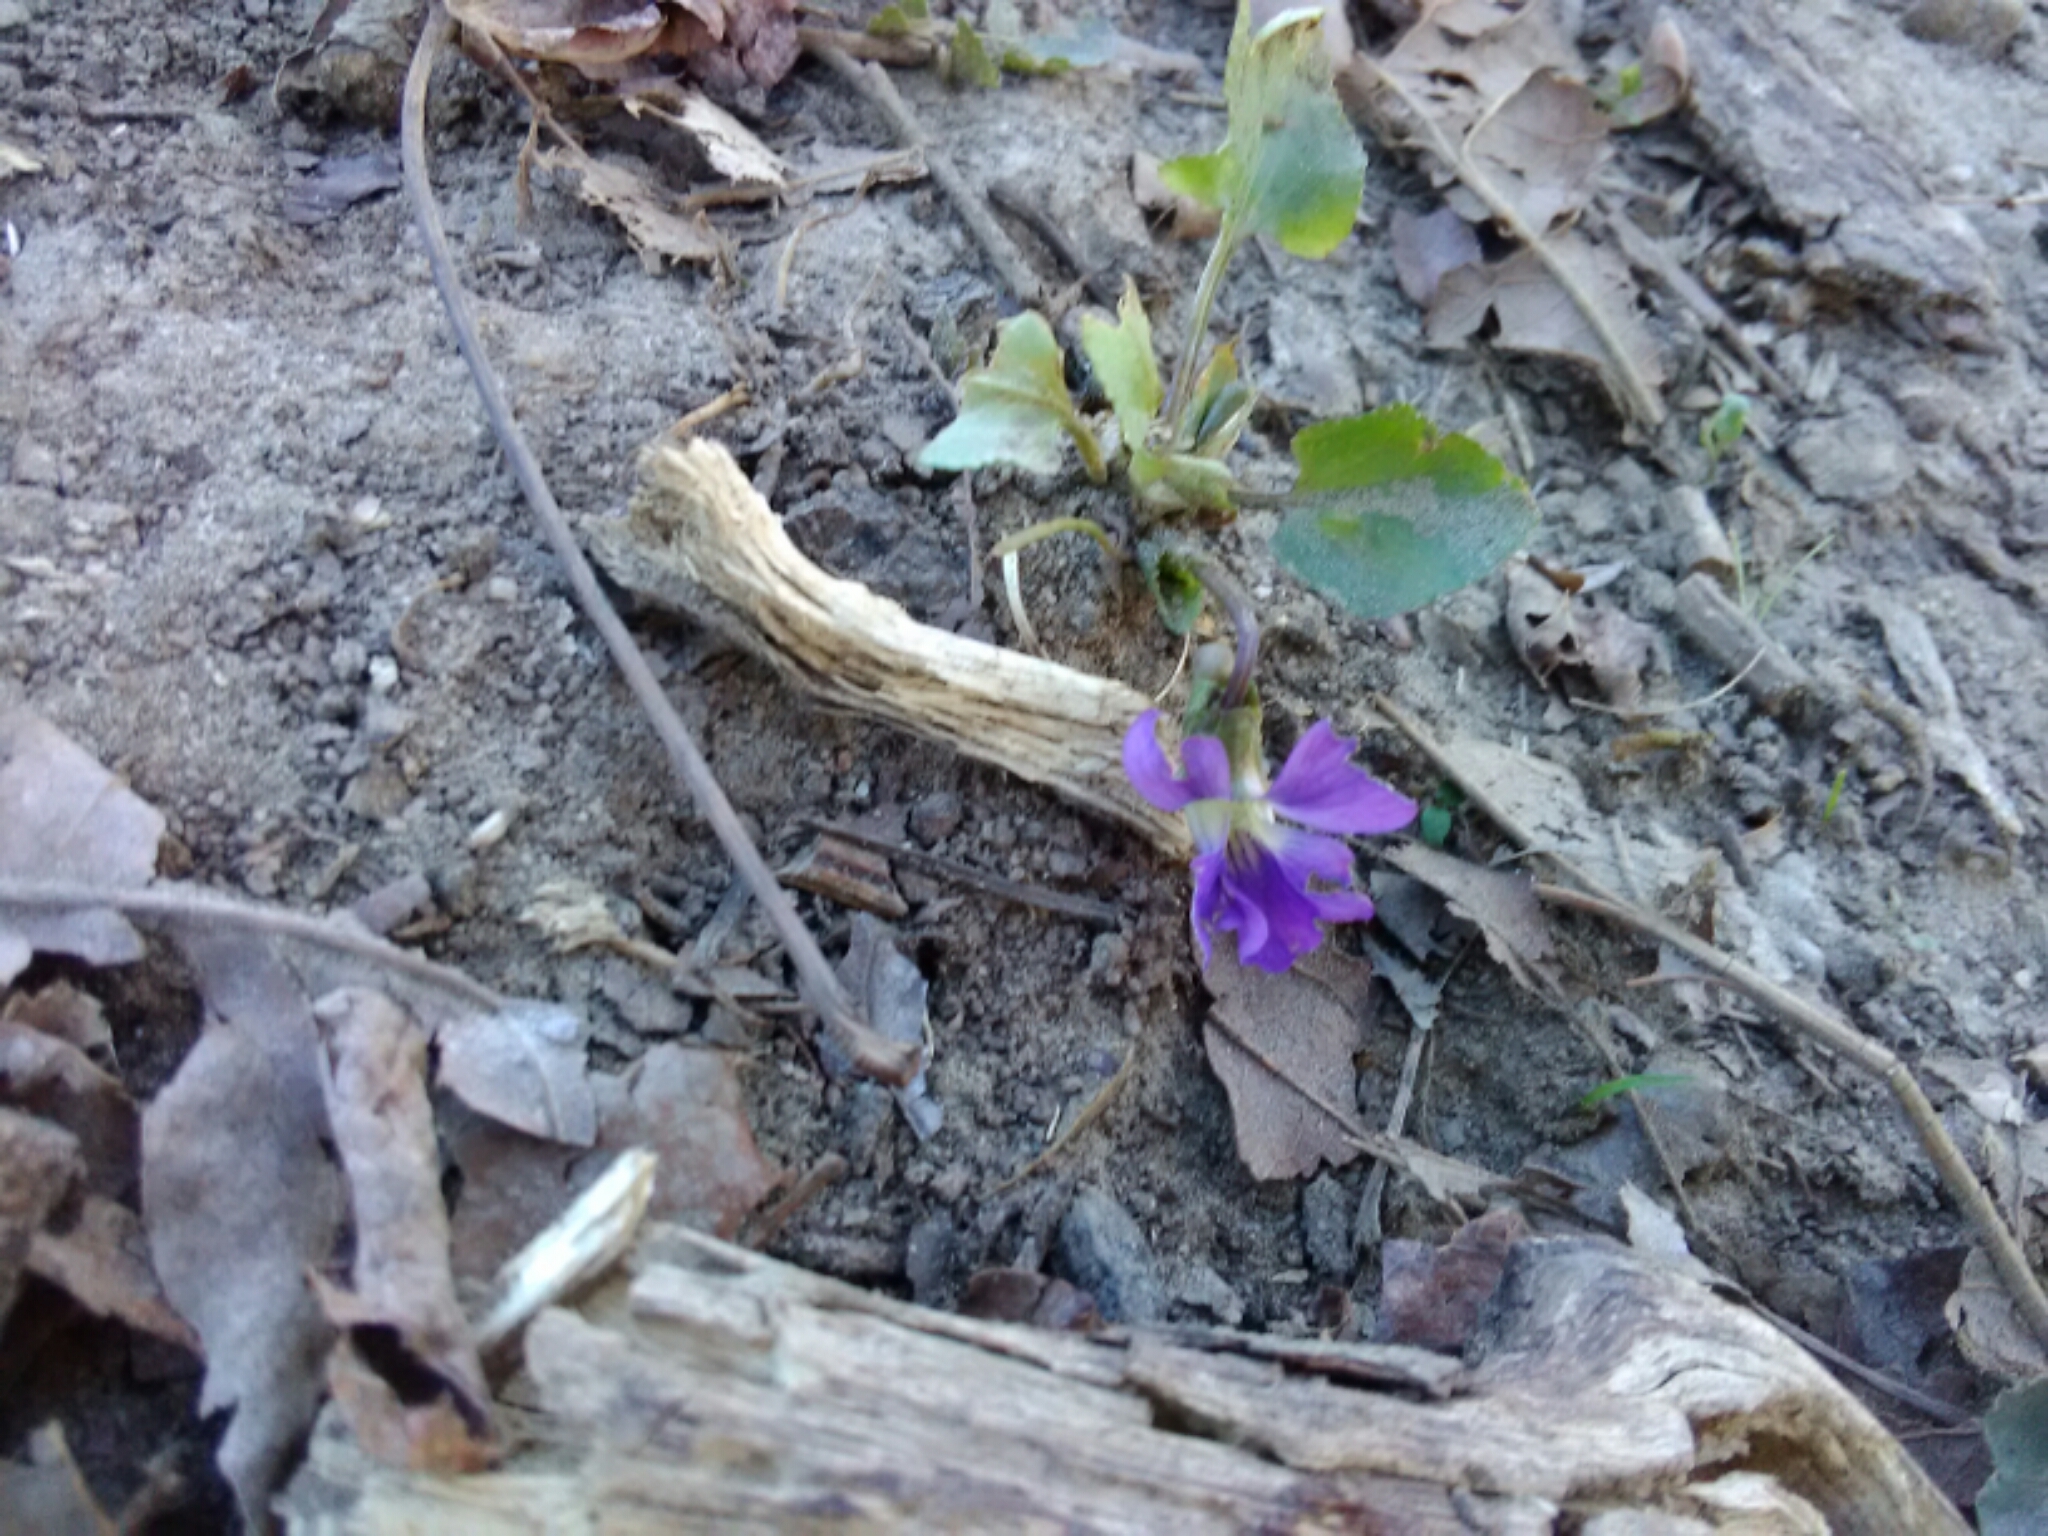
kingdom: Plantae
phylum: Tracheophyta
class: Magnoliopsida
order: Malpighiales
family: Violaceae
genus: Viola
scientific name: Viola sororia
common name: Dooryard violet
